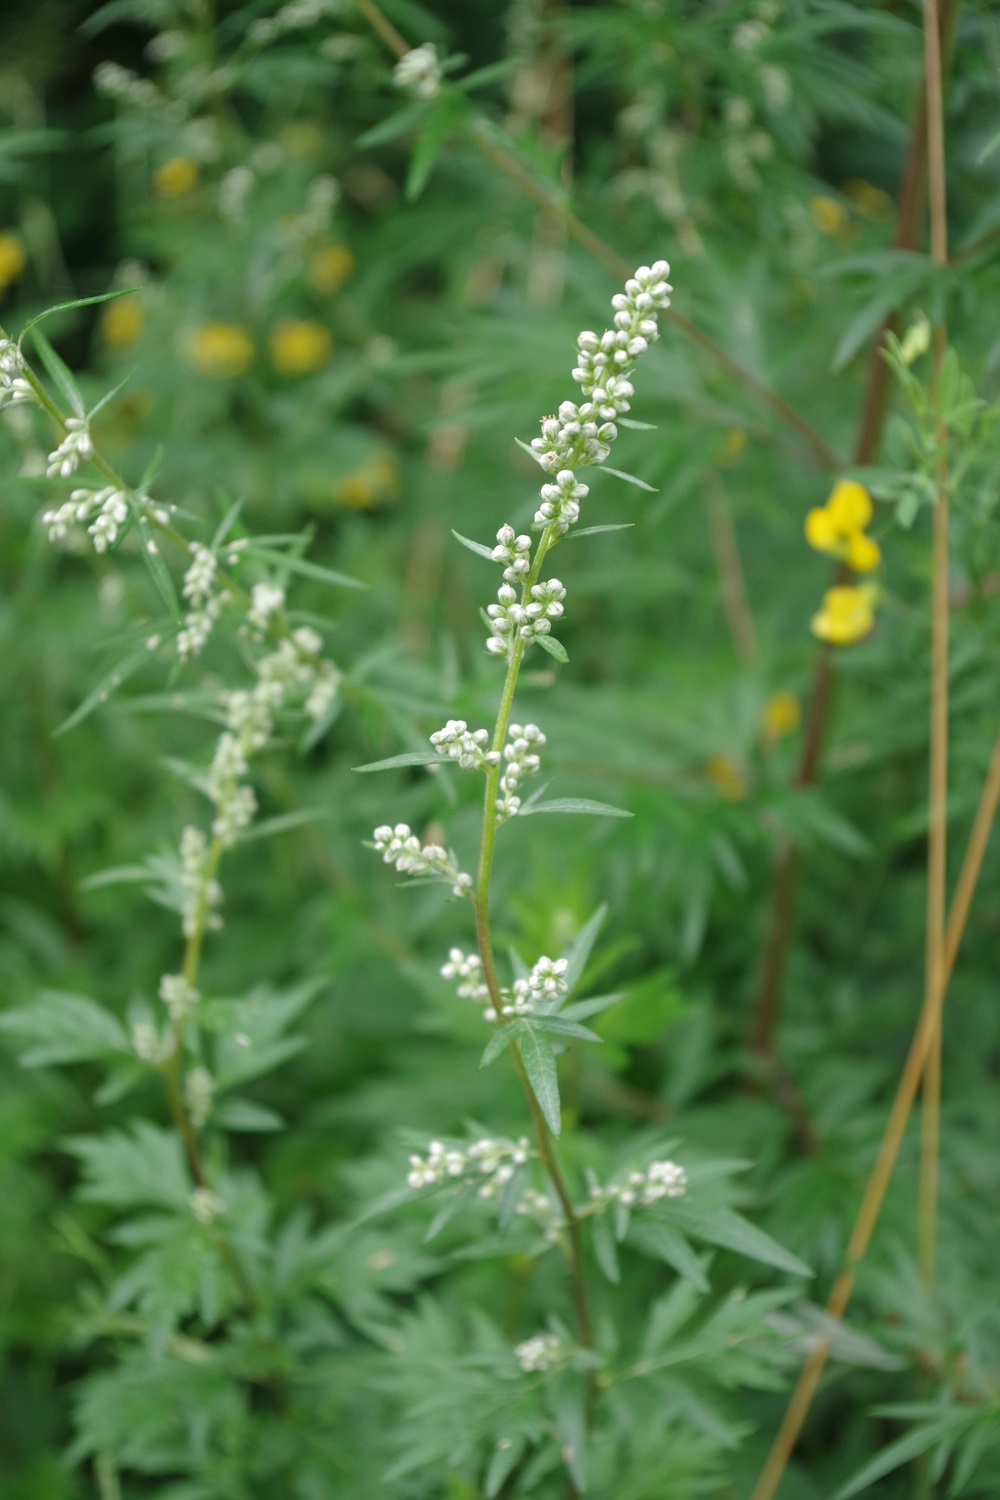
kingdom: Plantae
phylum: Tracheophyta
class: Magnoliopsida
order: Asterales
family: Asteraceae
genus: Artemisia
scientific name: Artemisia vulgaris
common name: Mugwort
